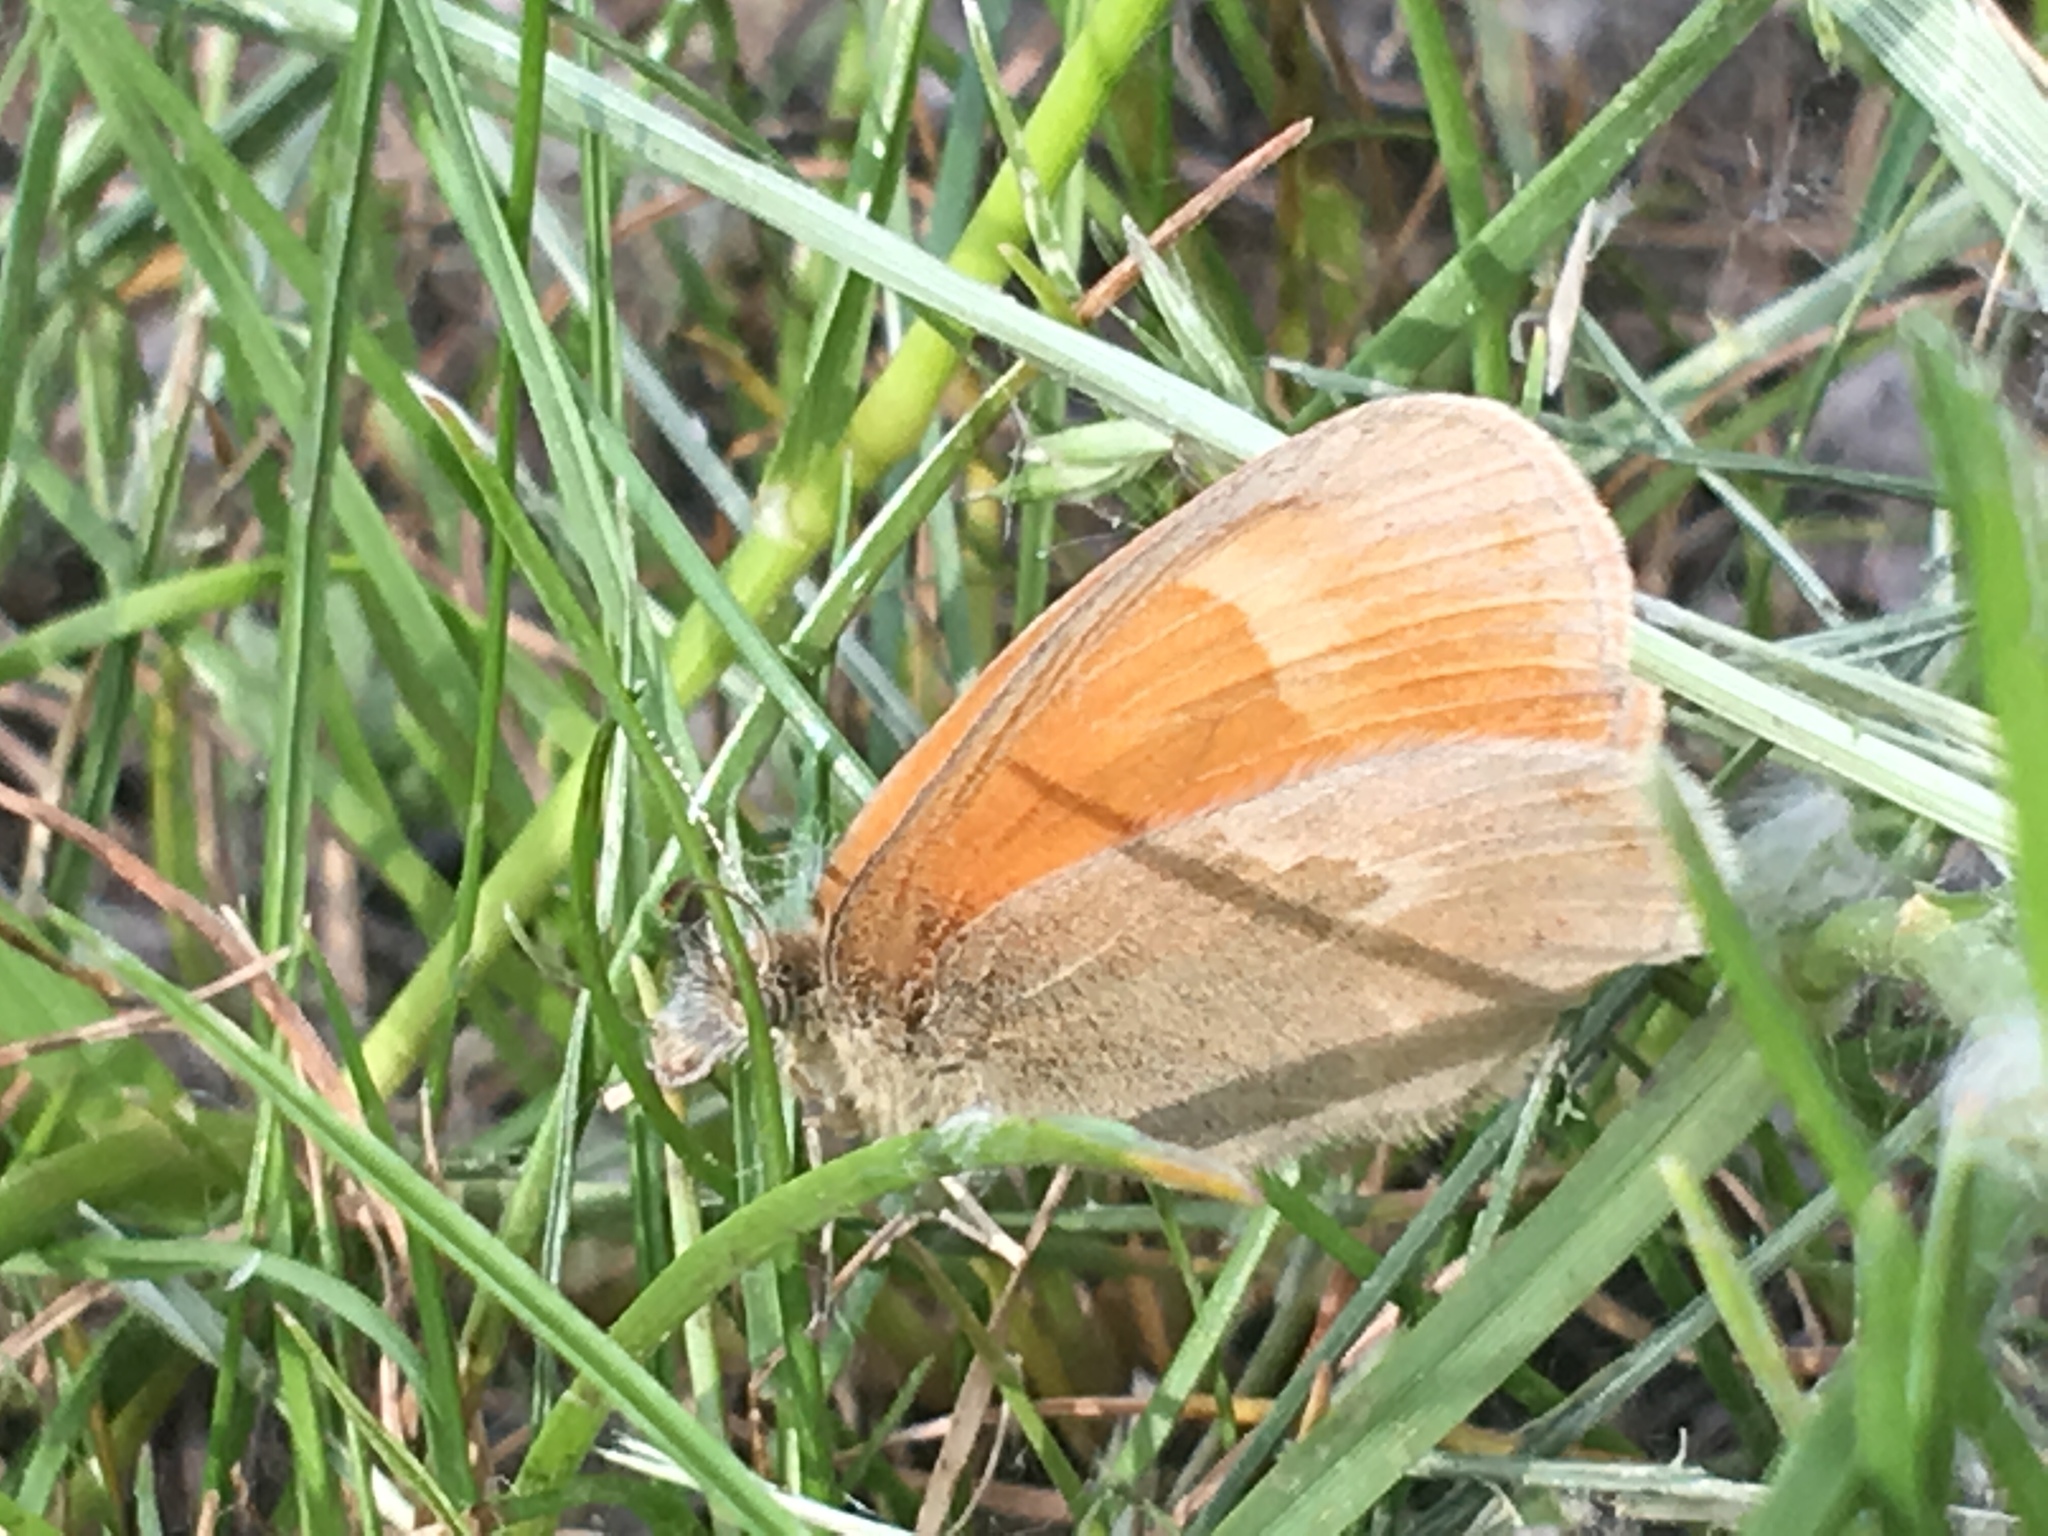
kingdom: Animalia
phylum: Arthropoda
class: Insecta
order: Lepidoptera
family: Nymphalidae
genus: Coenonympha
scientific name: Coenonympha california
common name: Common ringlet
